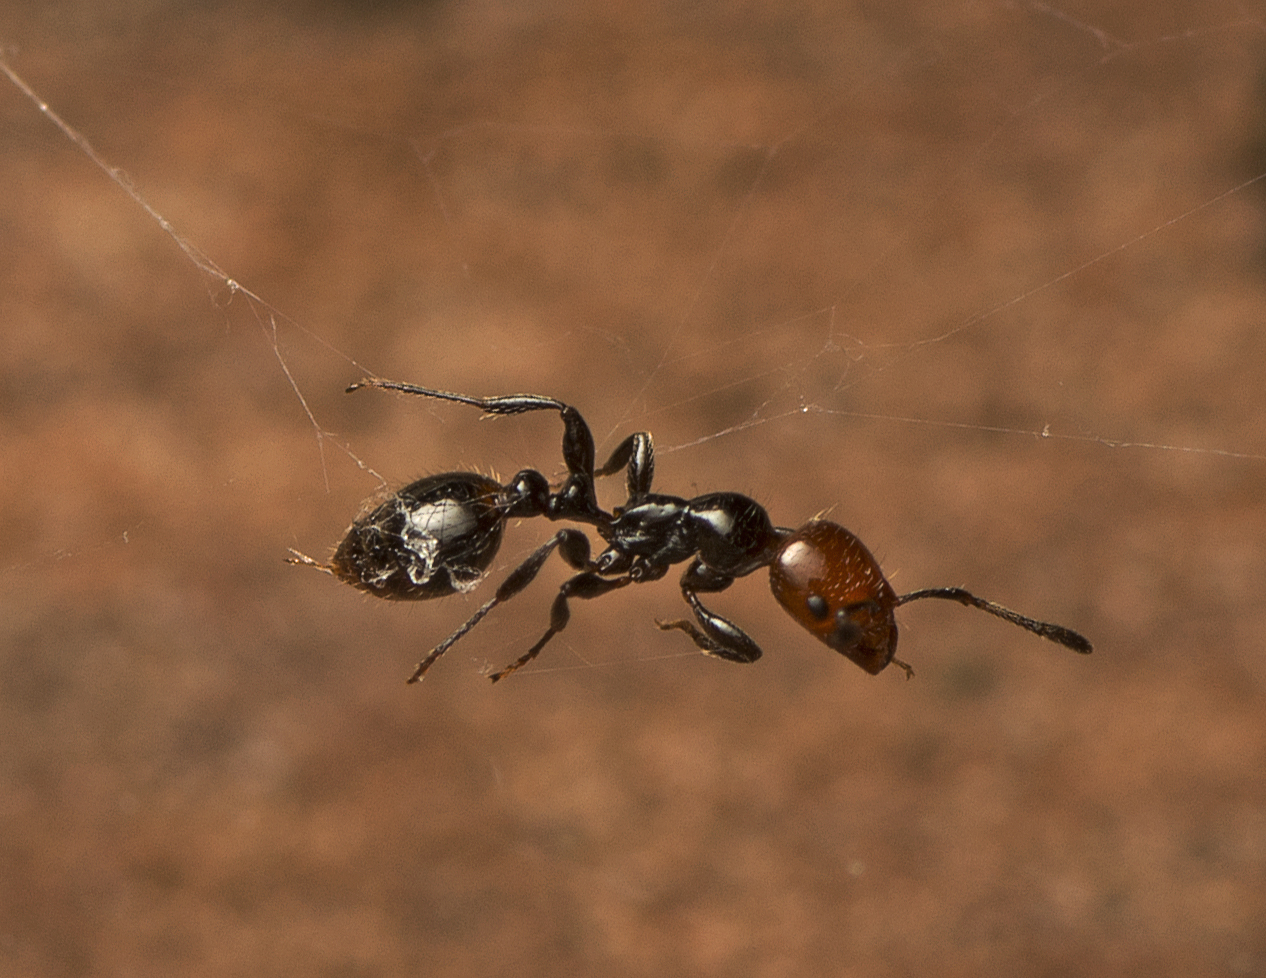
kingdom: Animalia
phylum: Arthropoda
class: Insecta
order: Hymenoptera
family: Formicidae
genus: Chelaner
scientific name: Chelaner
